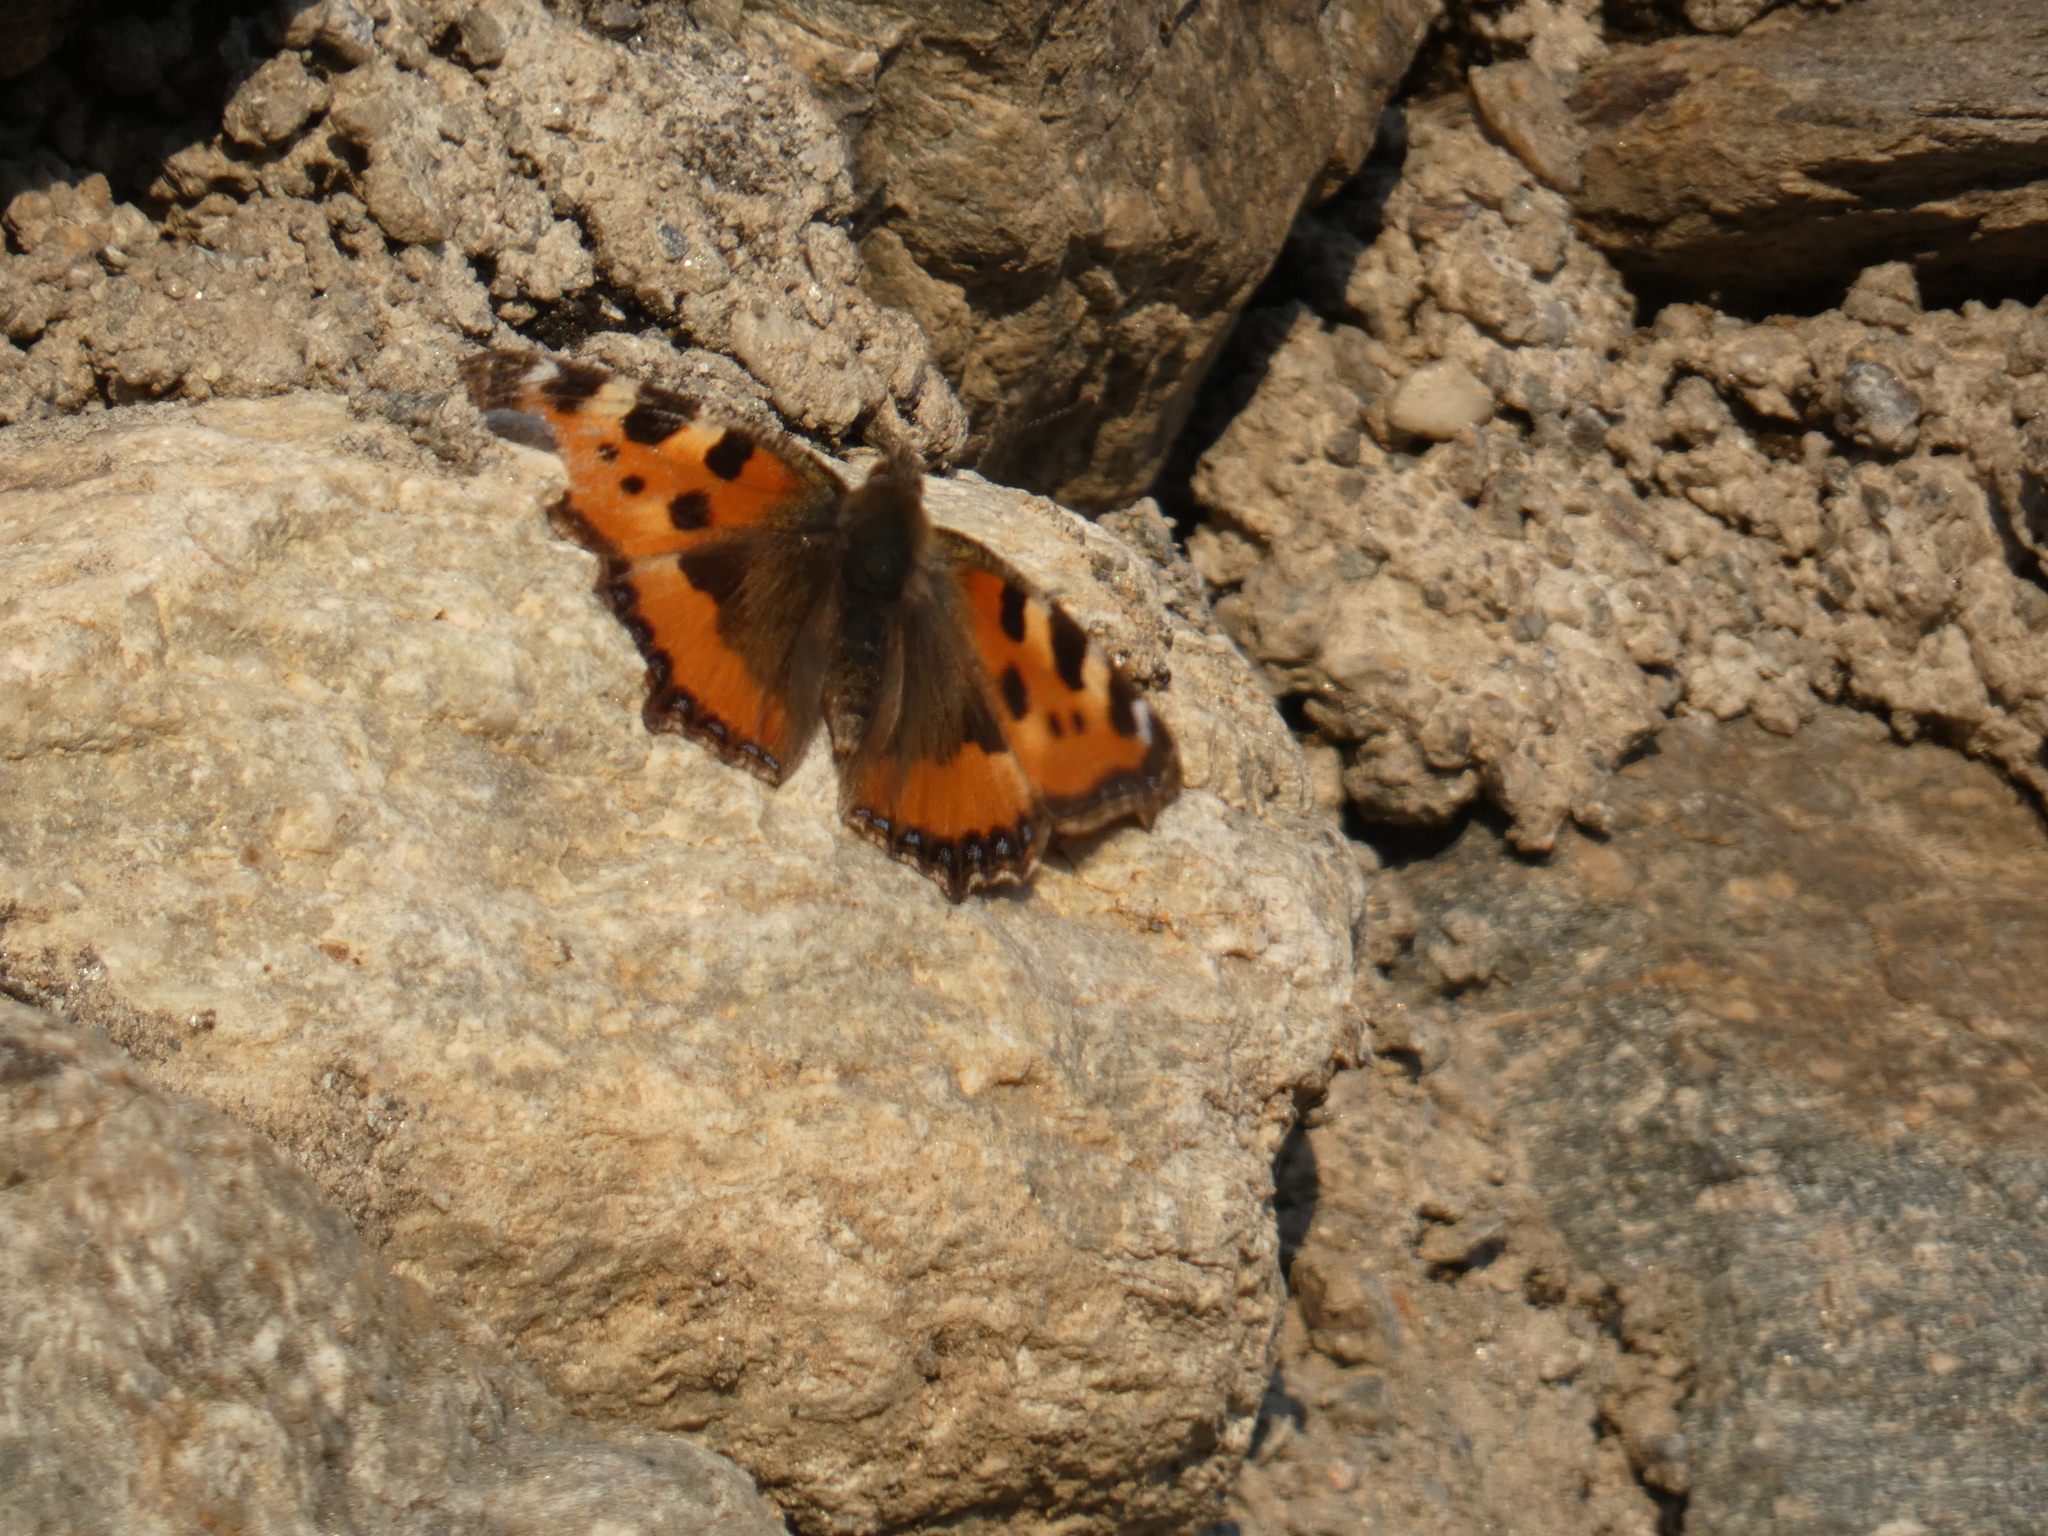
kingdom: Animalia
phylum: Arthropoda
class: Insecta
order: Lepidoptera
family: Nymphalidae
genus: Aglais
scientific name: Aglais urticae
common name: Small tortoiseshell
